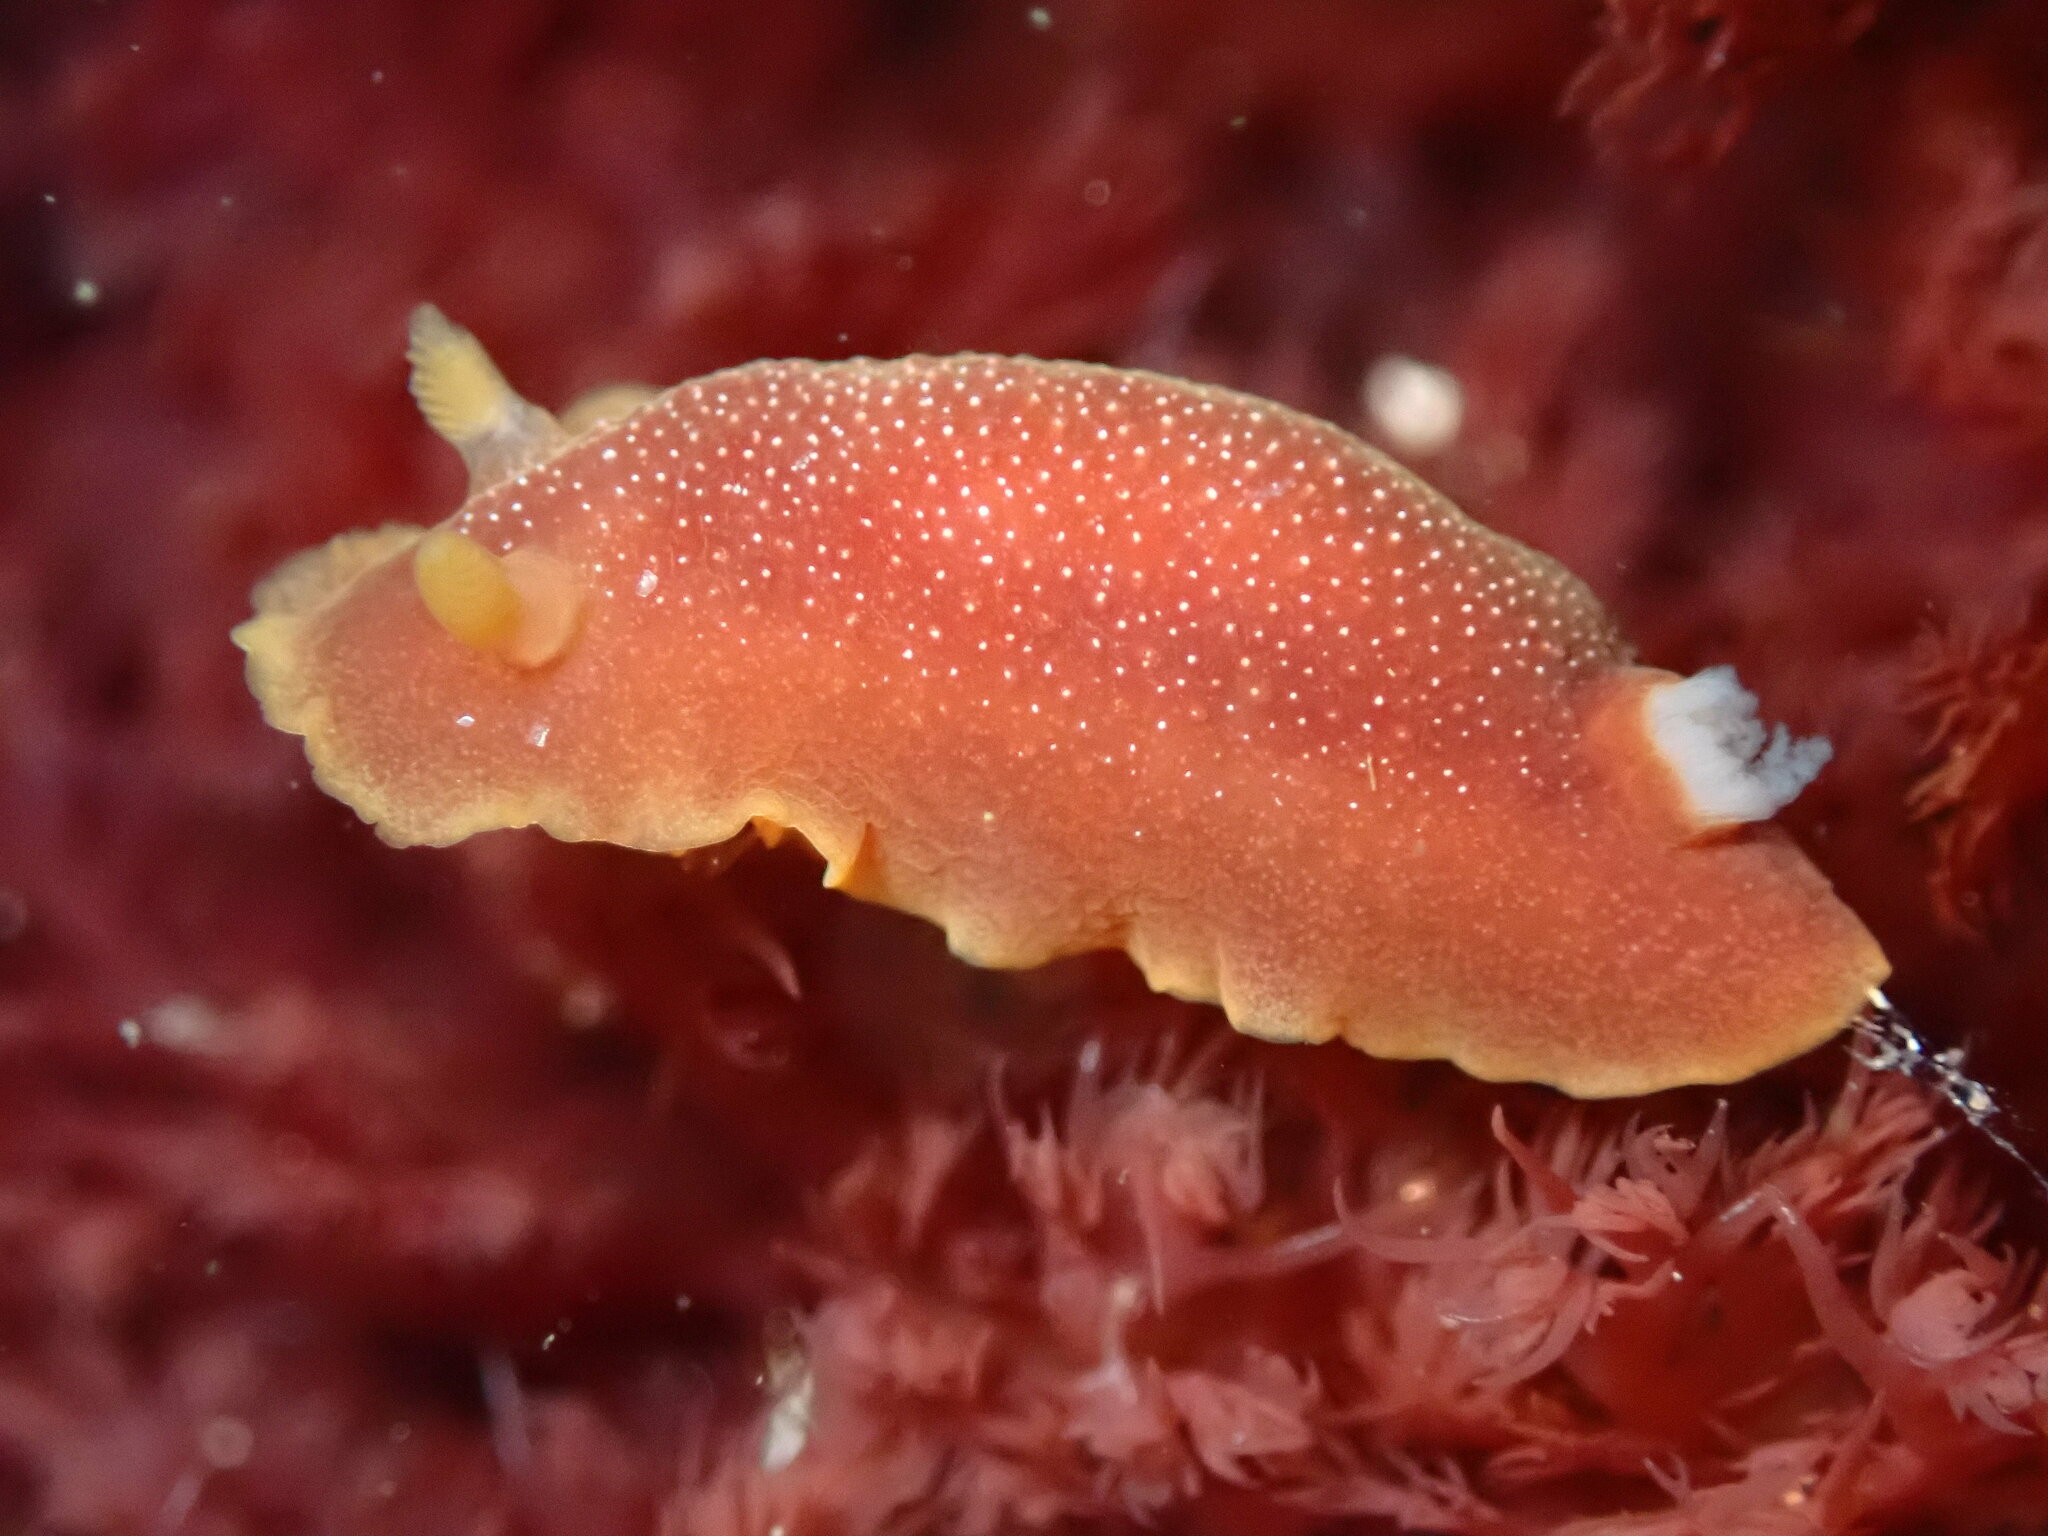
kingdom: Animalia
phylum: Mollusca
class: Gastropoda
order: Nudibranchia
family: Dendrodorididae
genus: Doriopsilla
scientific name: Doriopsilla albopunctata
